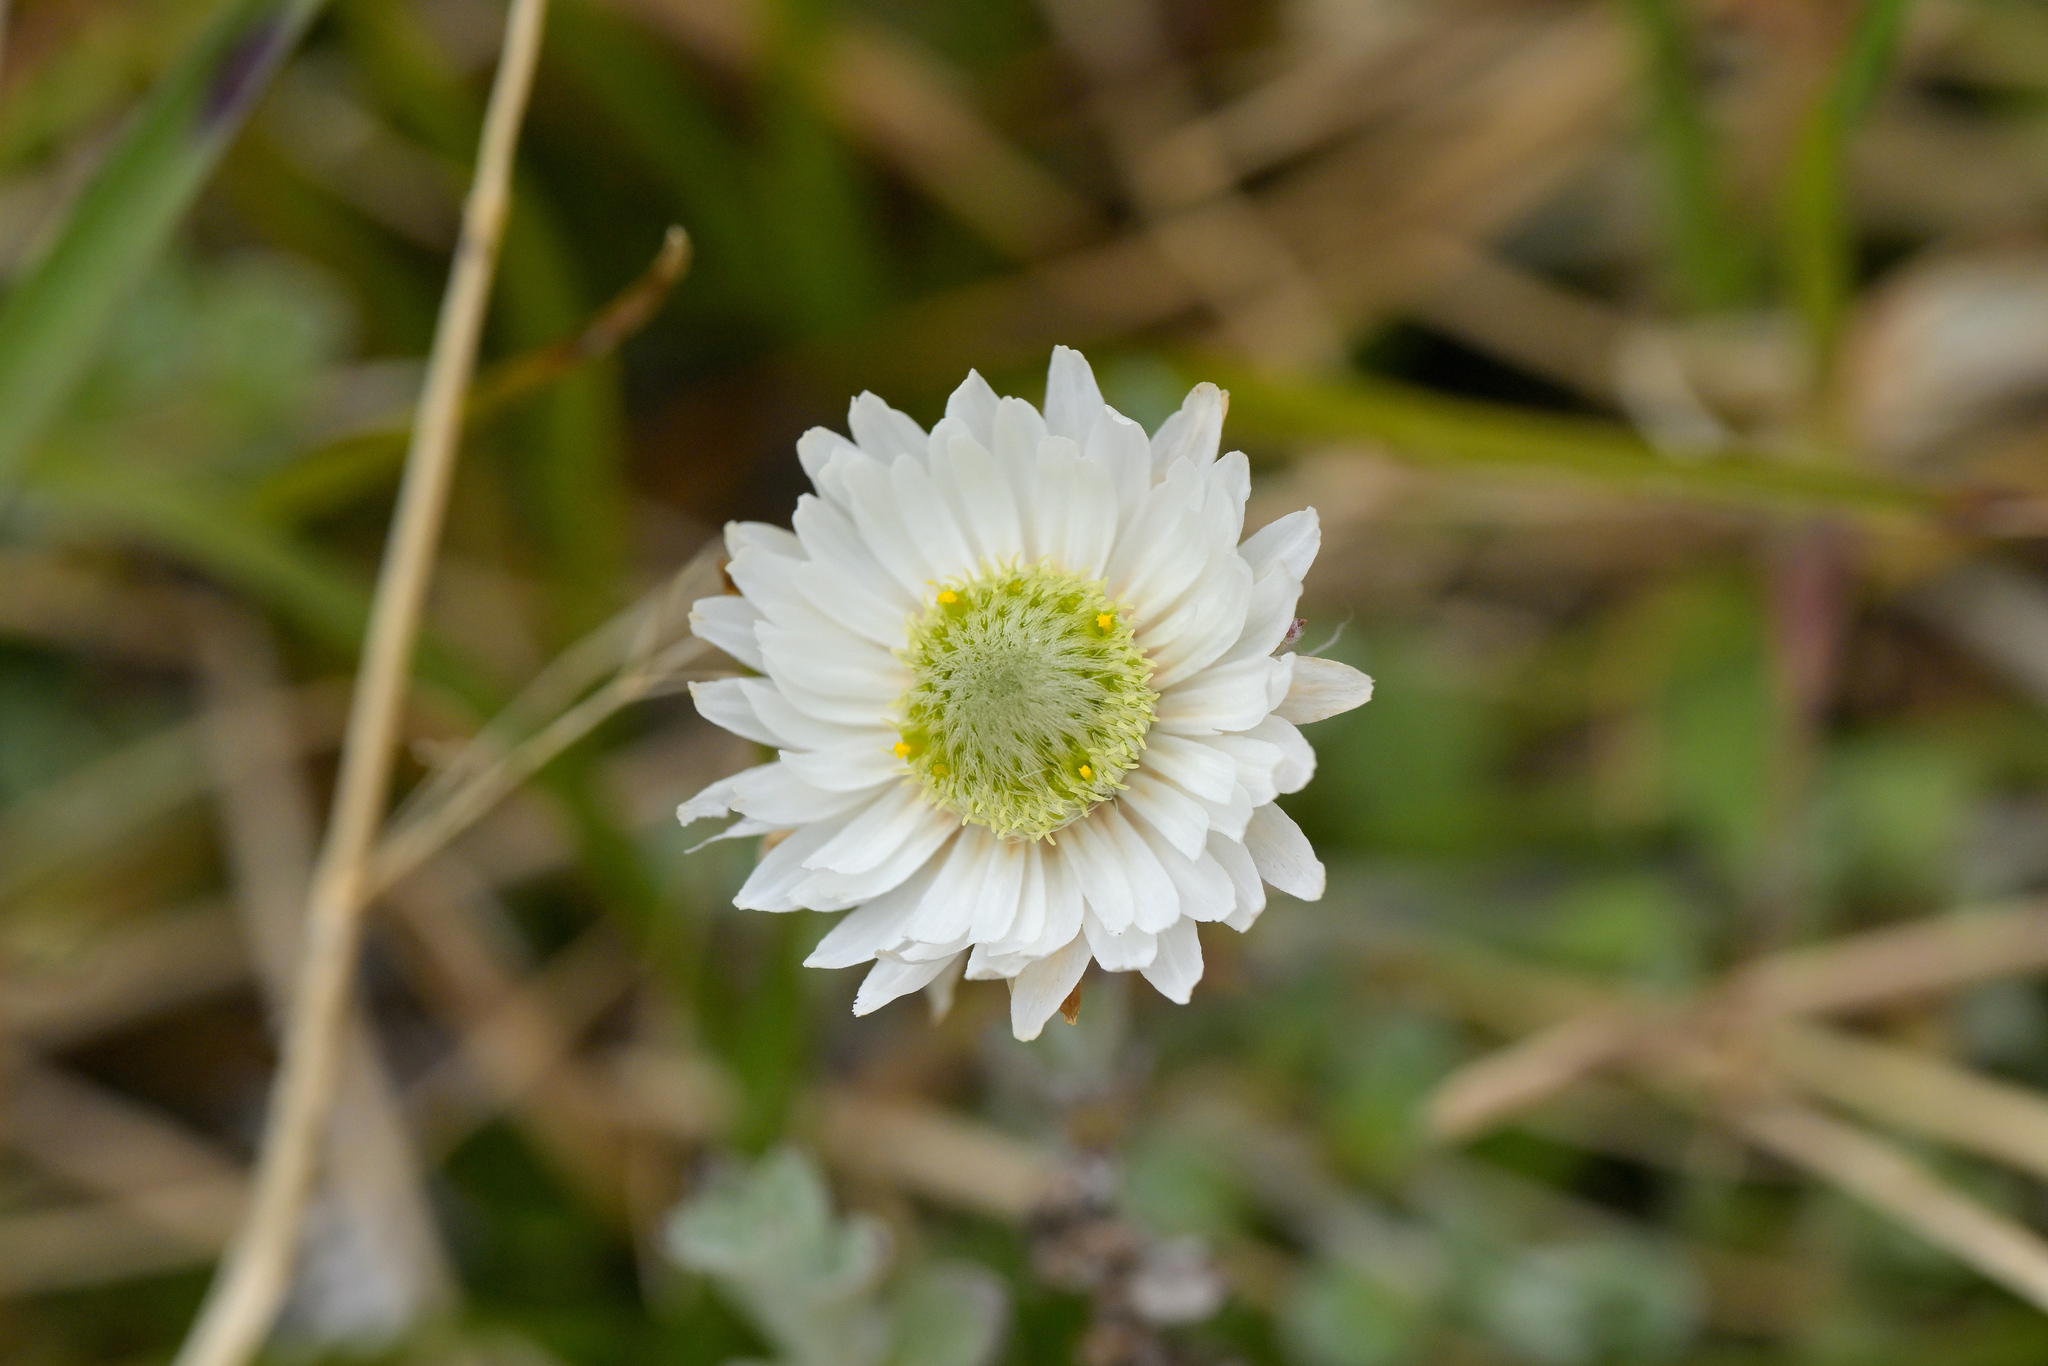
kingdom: Plantae
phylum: Tracheophyta
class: Magnoliopsida
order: Asterales
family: Asteraceae
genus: Anaphalioides
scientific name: Anaphalioides bellidioides
